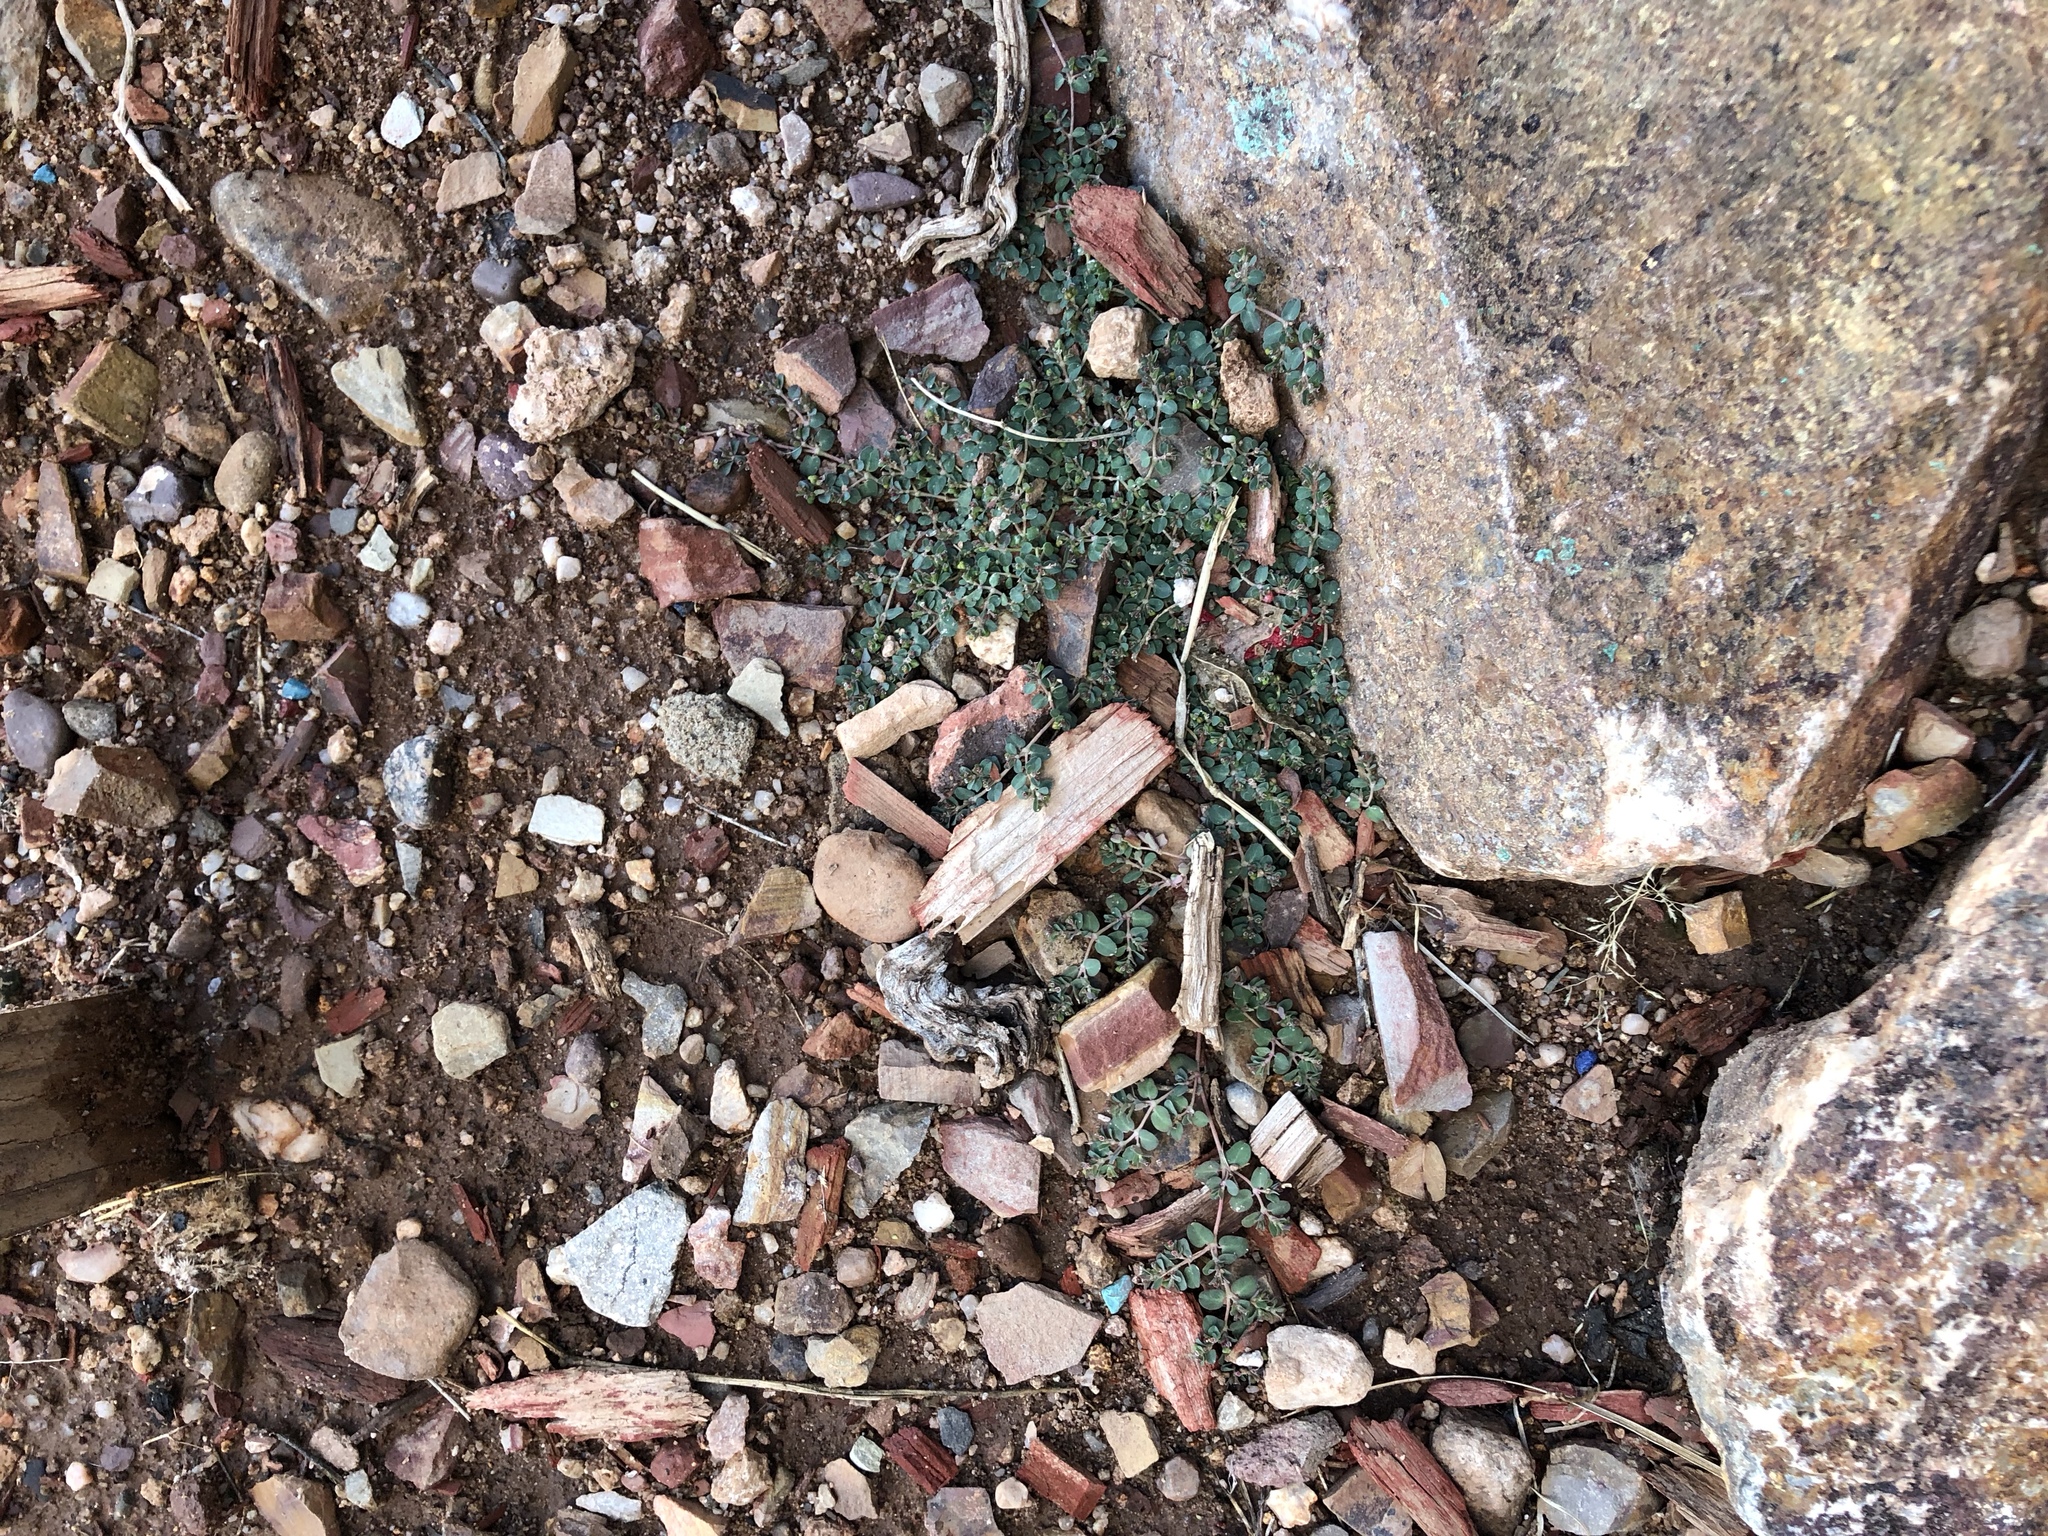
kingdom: Plantae
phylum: Tracheophyta
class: Magnoliopsida
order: Malpighiales
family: Euphorbiaceae
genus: Euphorbia
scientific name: Euphorbia serpens
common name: Matted sandmat
